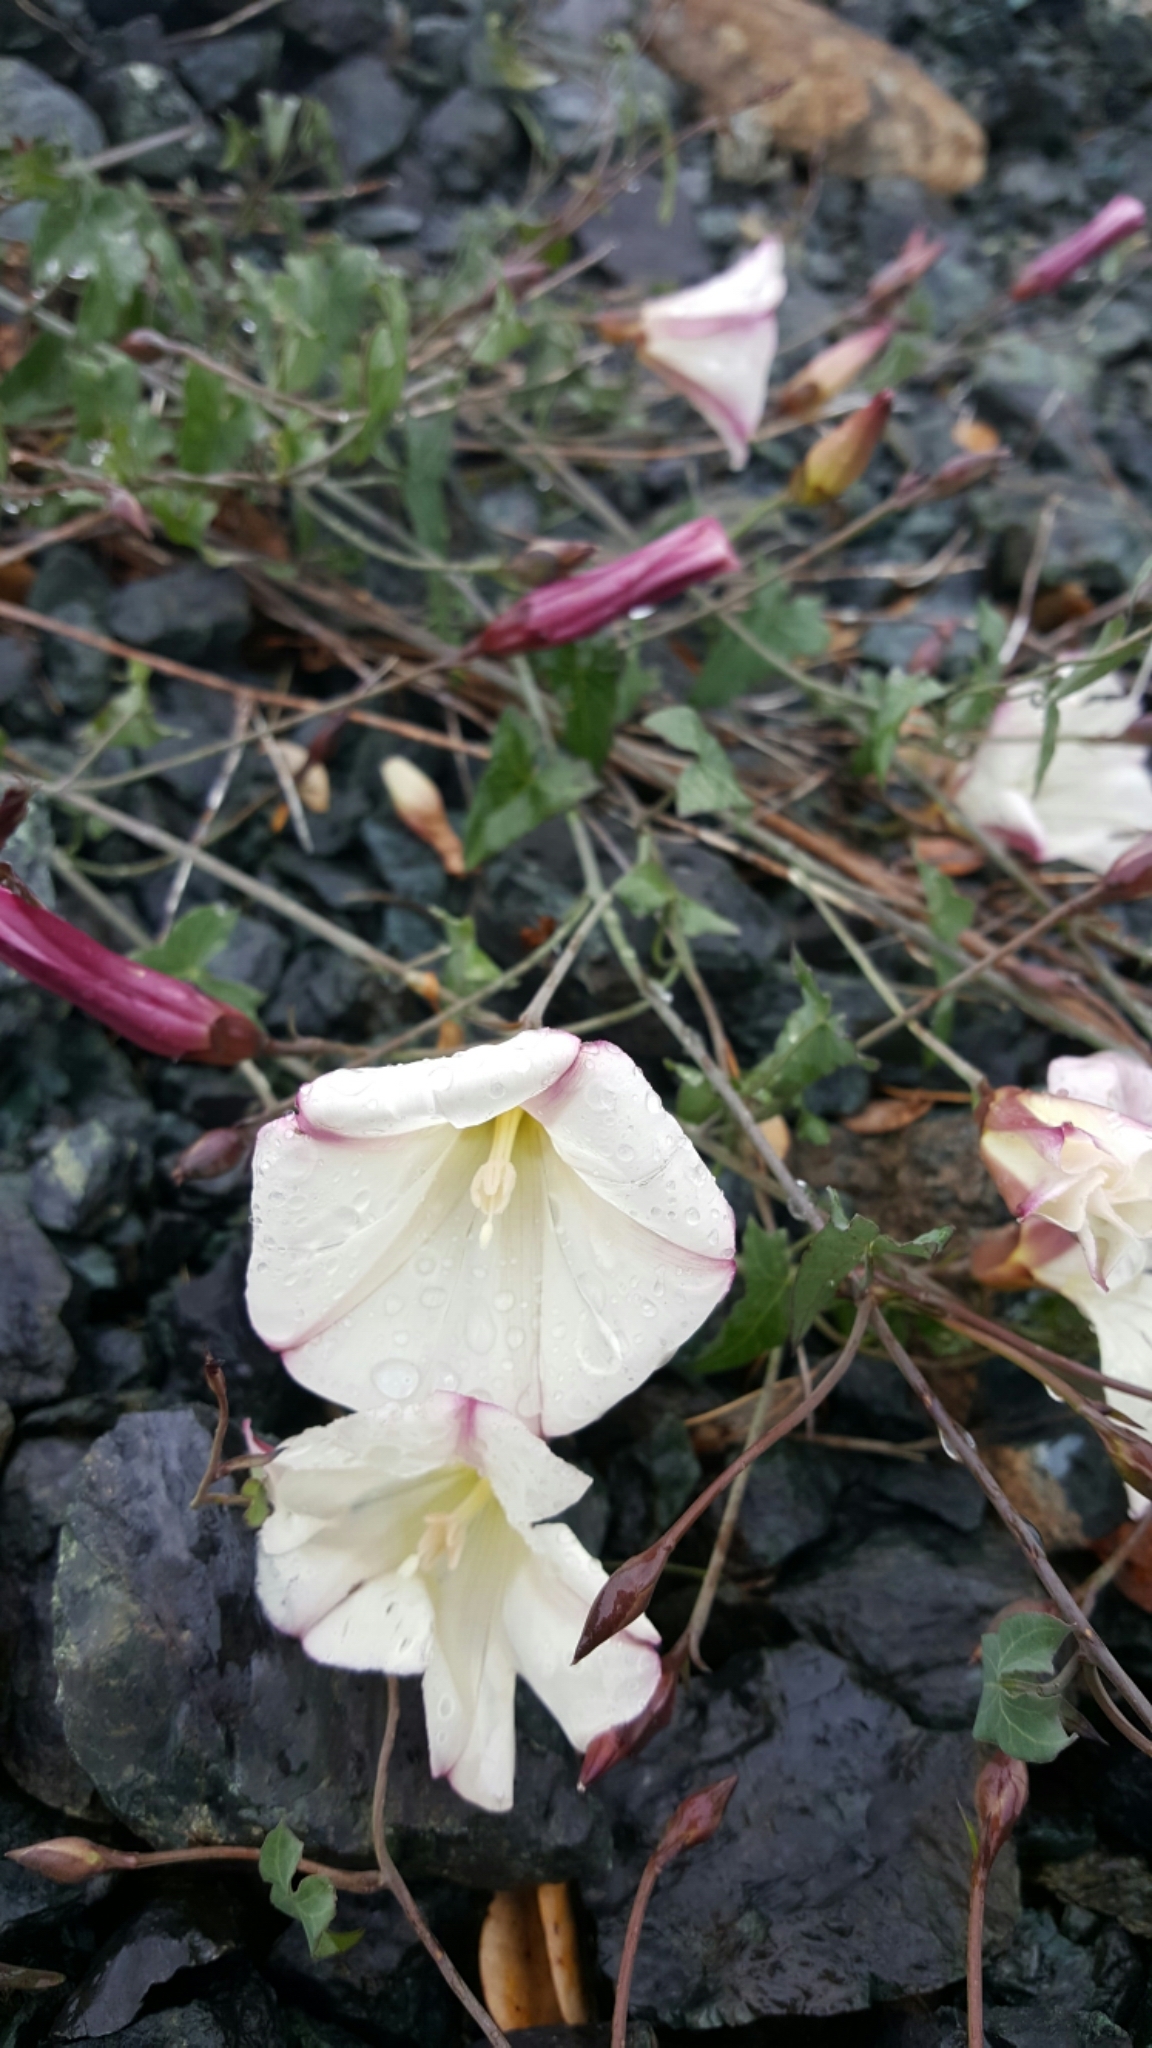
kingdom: Plantae
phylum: Tracheophyta
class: Magnoliopsida
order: Solanales
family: Convolvulaceae
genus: Calystegia
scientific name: Calystegia purpurata
